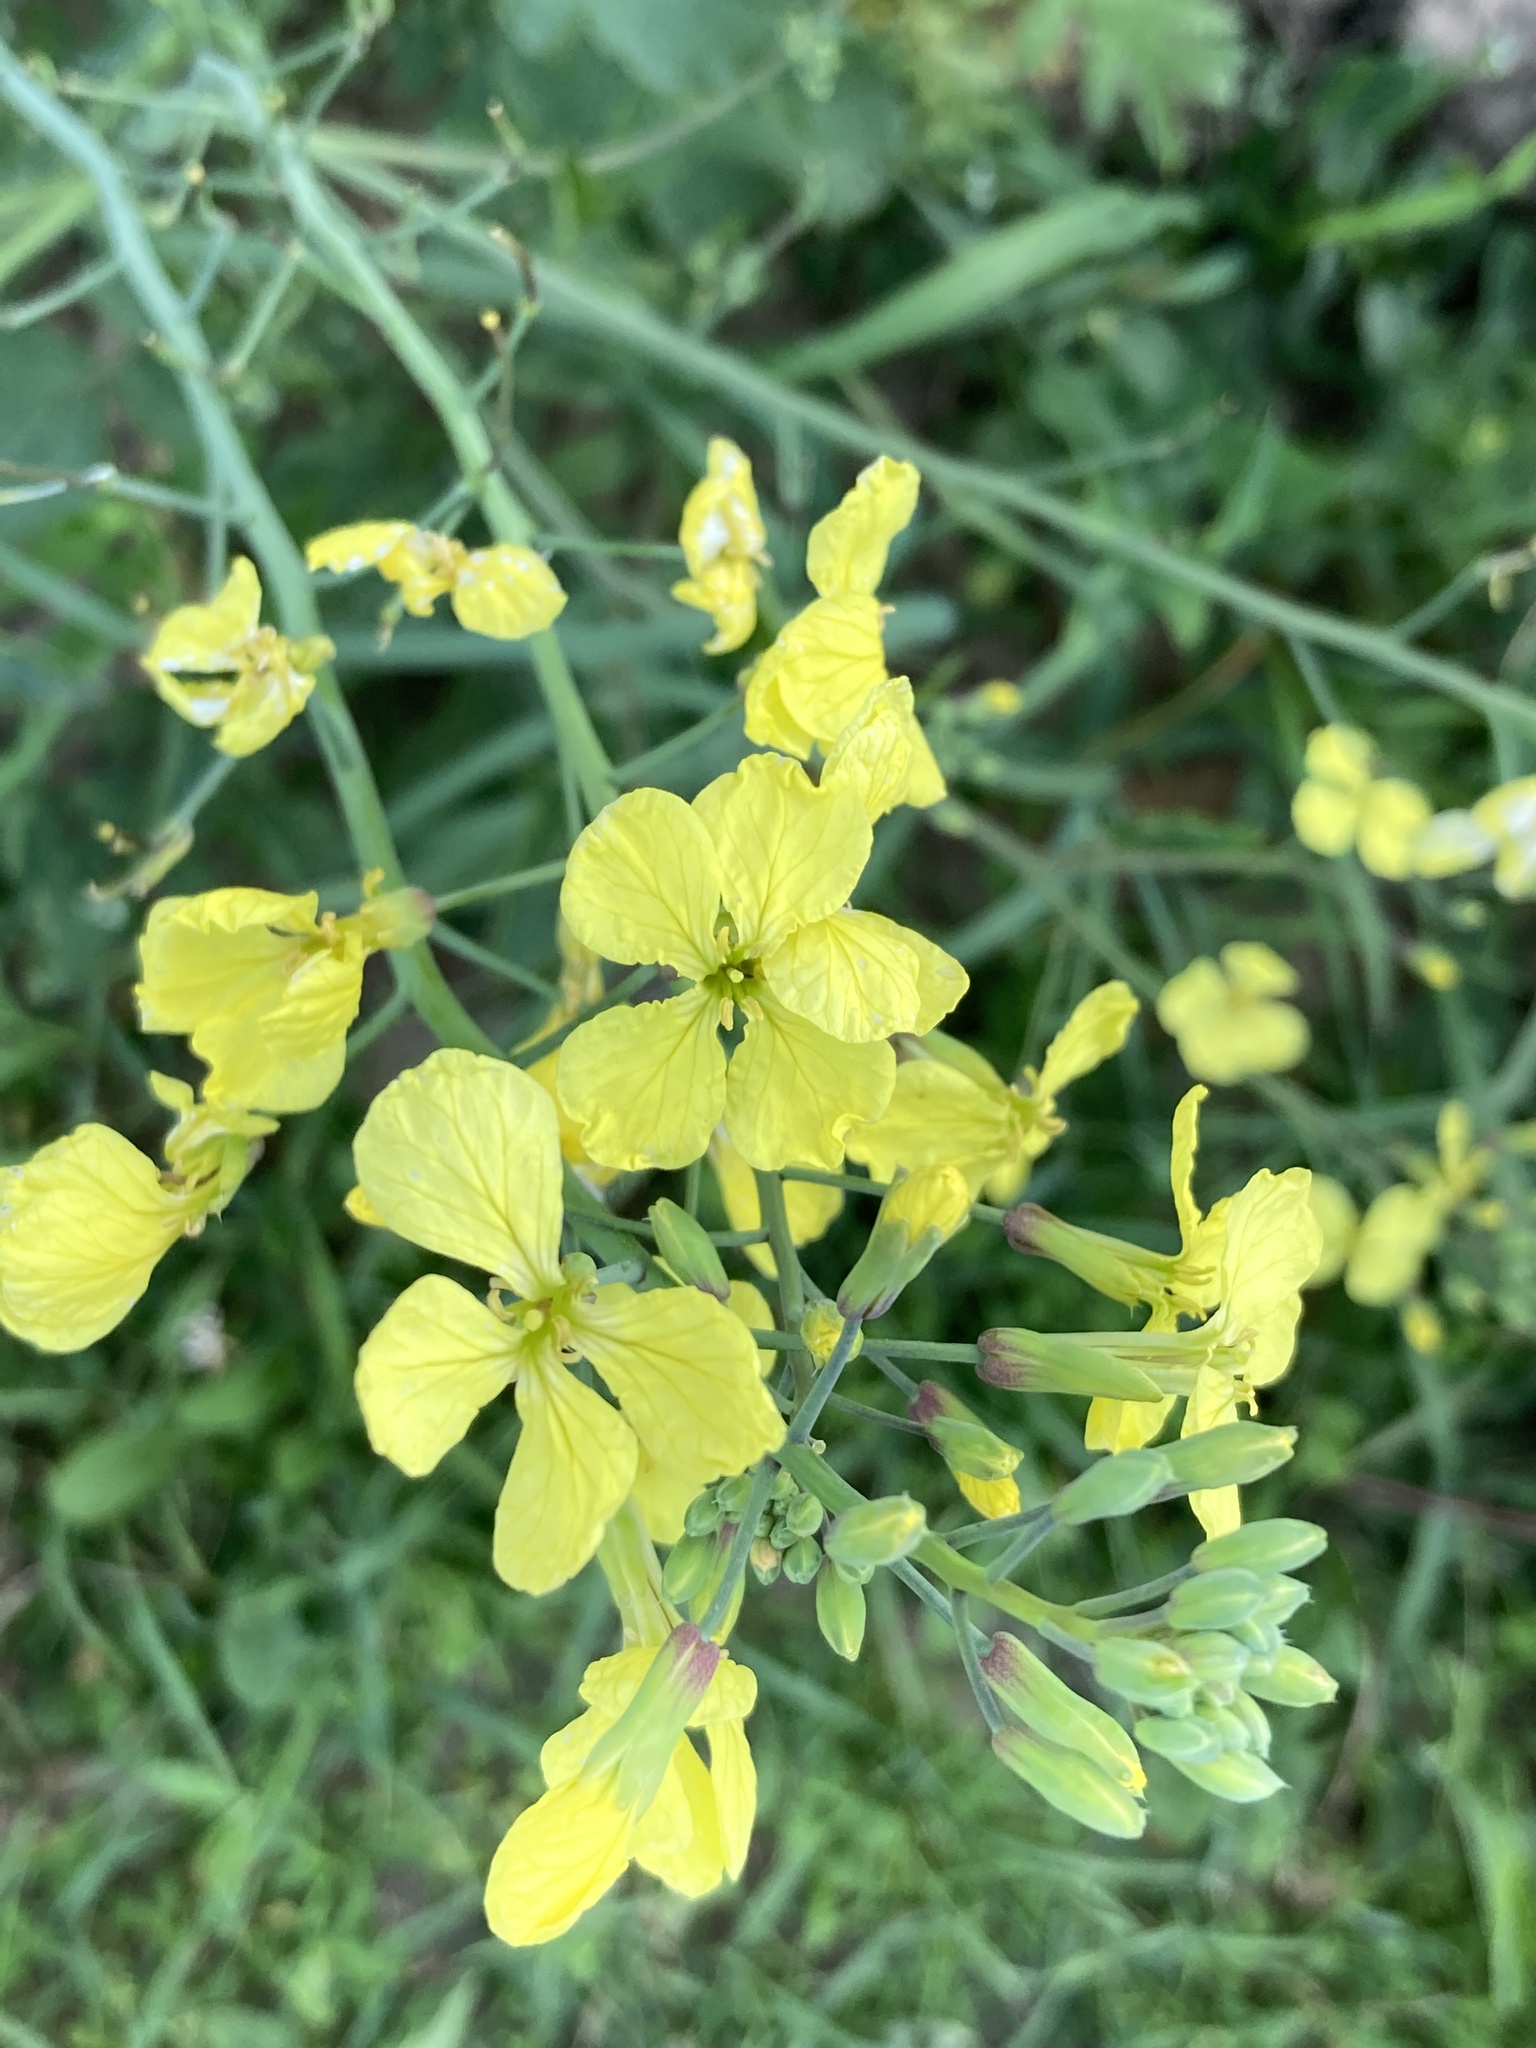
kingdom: Plantae
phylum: Tracheophyta
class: Magnoliopsida
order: Brassicales
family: Brassicaceae
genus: Raphanus
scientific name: Raphanus raphanistrum
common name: Wild radish
